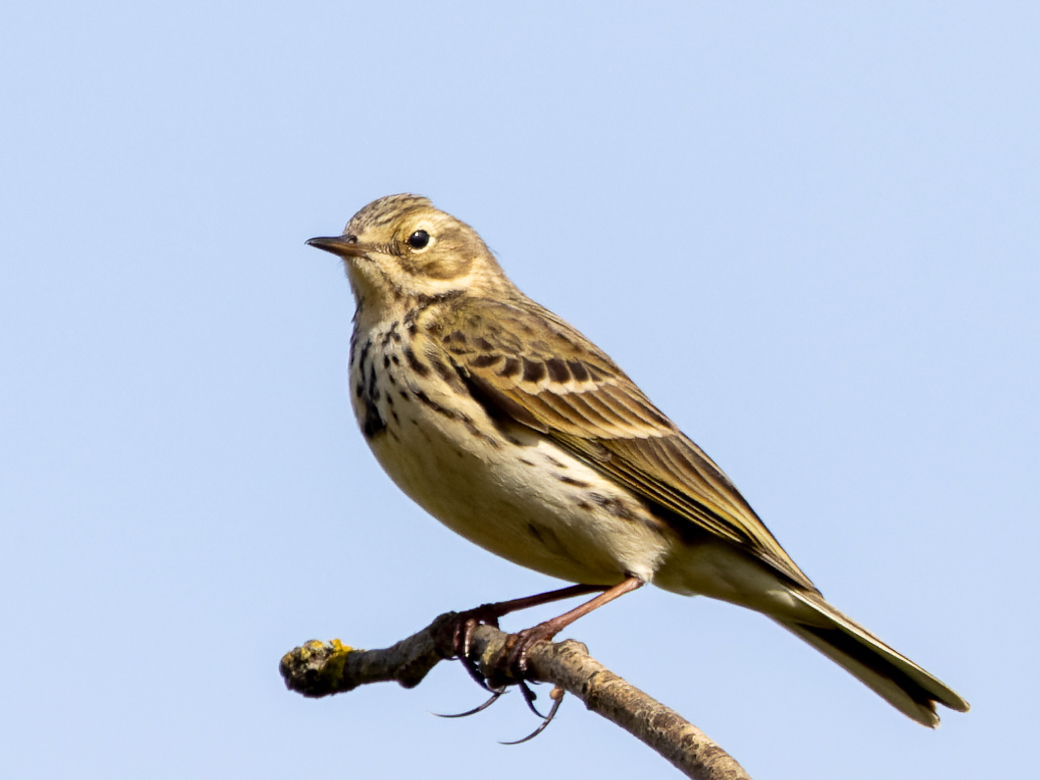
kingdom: Animalia
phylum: Chordata
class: Aves
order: Passeriformes
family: Motacillidae
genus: Anthus
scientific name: Anthus pratensis
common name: Meadow pipit
